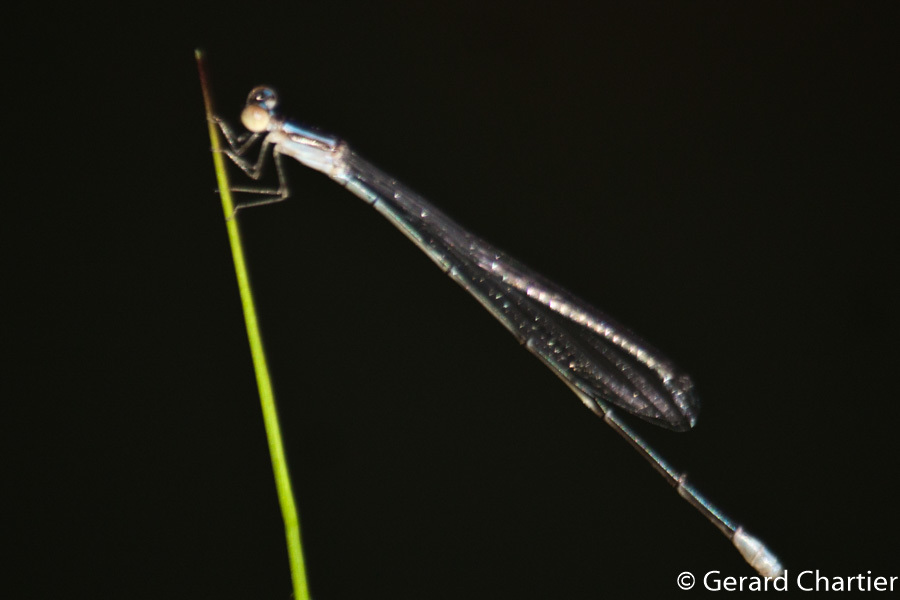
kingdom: Animalia
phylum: Arthropoda
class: Insecta
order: Odonata
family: Coenagrionidae
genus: Aciagrion
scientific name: Aciagrion hisopa
